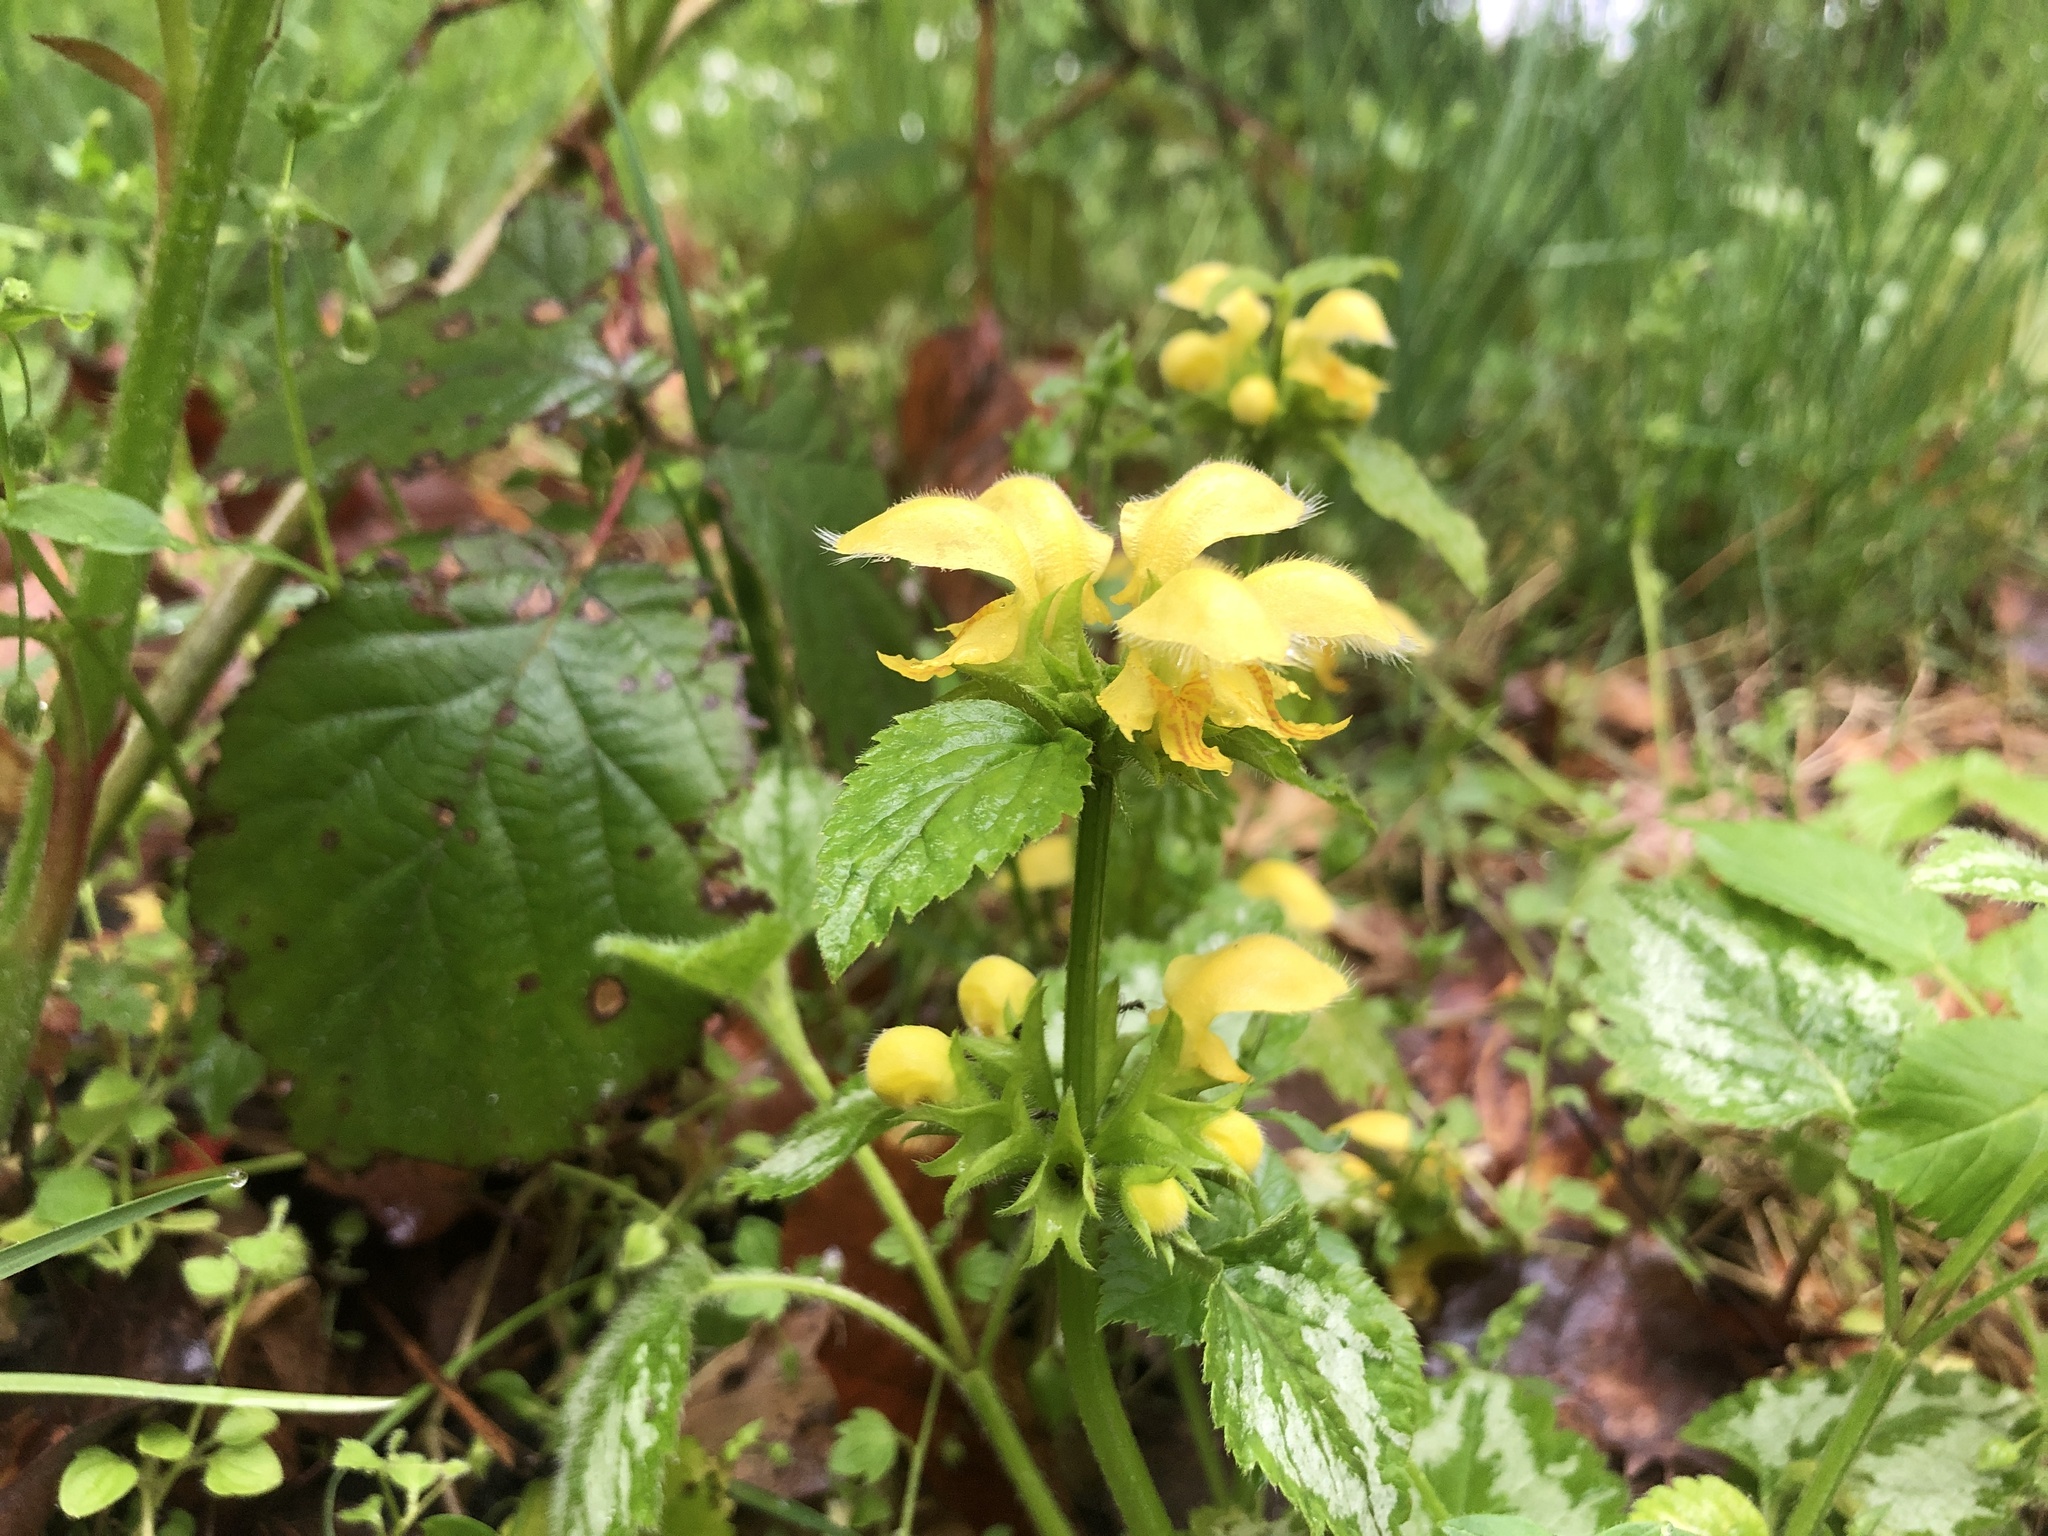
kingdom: Plantae
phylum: Tracheophyta
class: Magnoliopsida
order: Lamiales
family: Lamiaceae
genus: Lamium
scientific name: Lamium galeobdolon
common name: Yellow archangel
